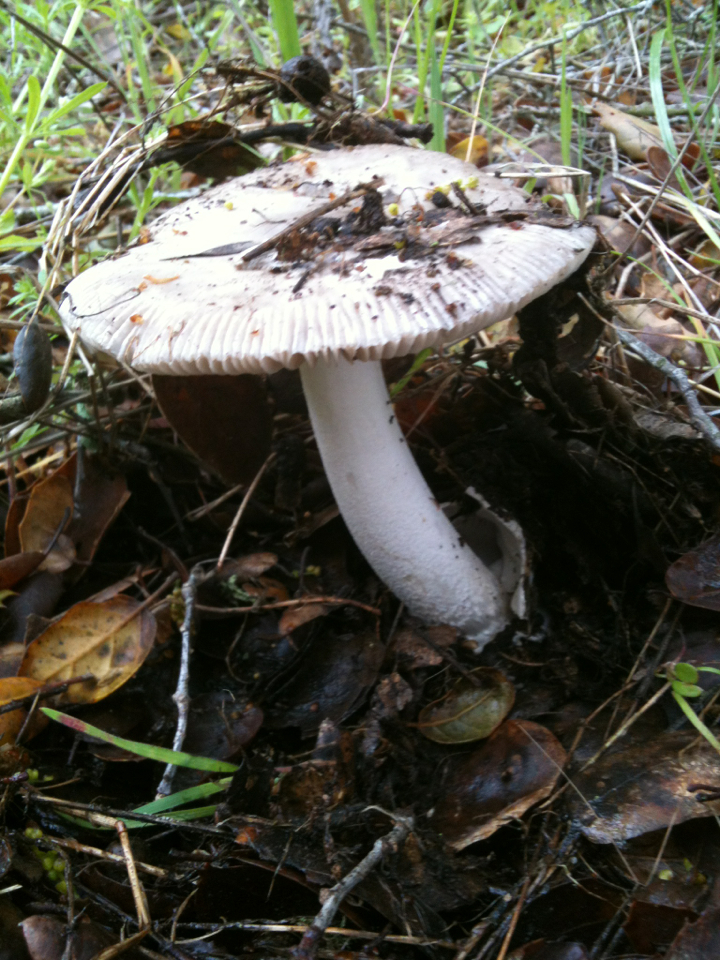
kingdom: Fungi
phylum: Basidiomycota
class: Agaricomycetes
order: Agaricales
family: Amanitaceae
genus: Amanita
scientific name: Amanita vaginata
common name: Grisette
